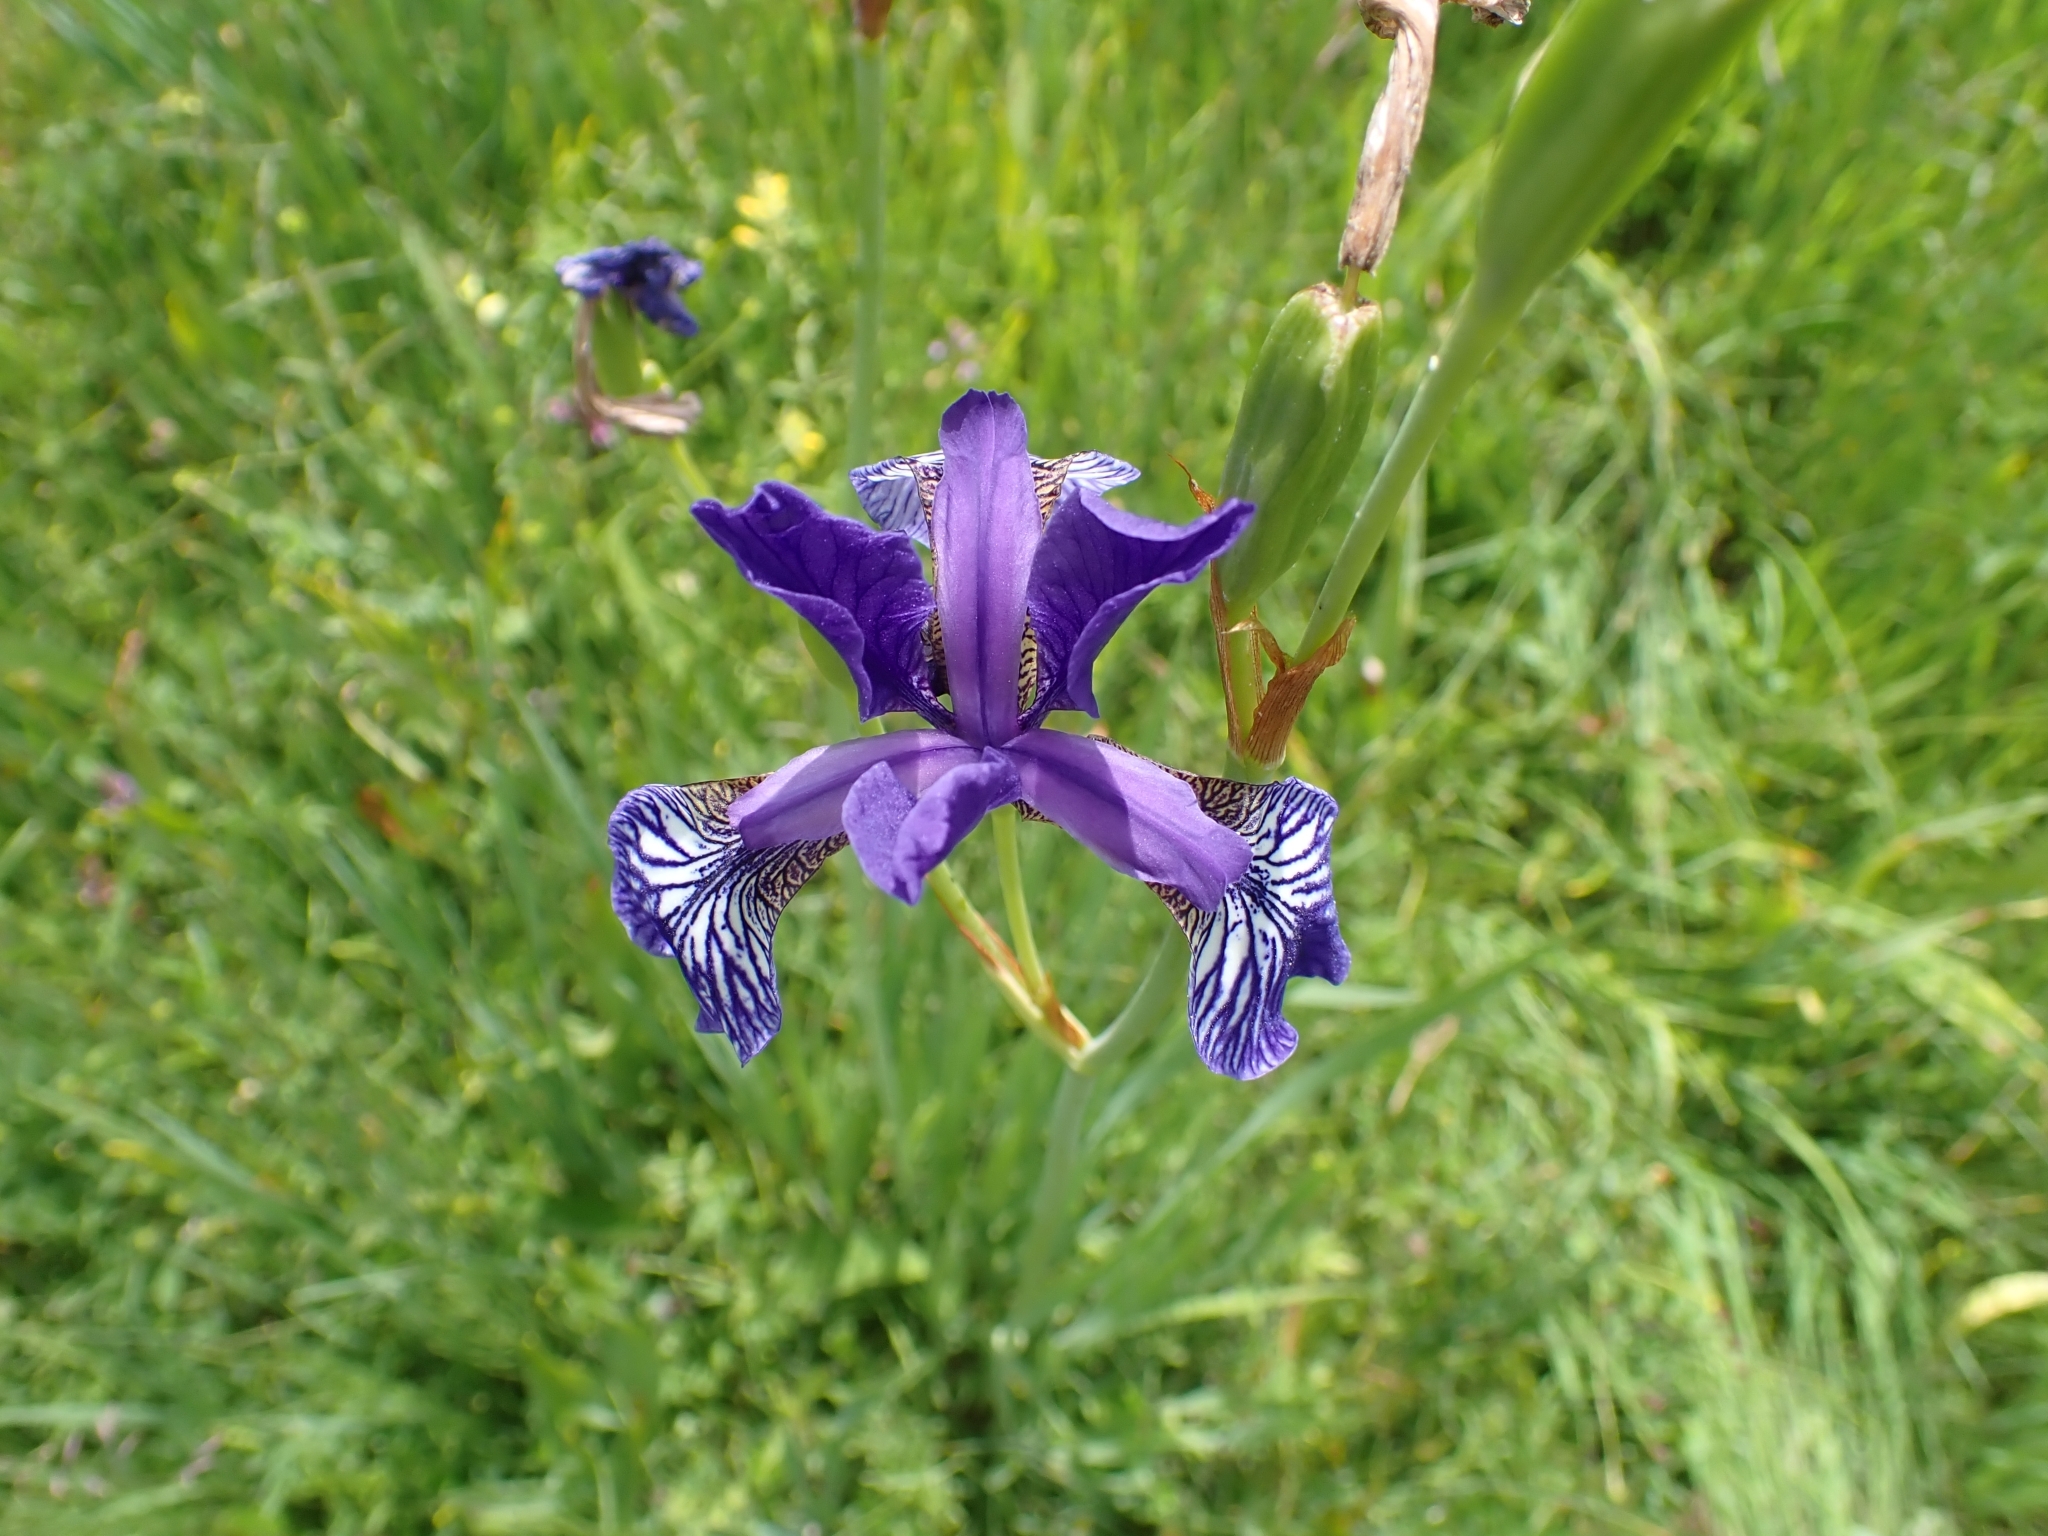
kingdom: Plantae
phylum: Tracheophyta
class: Liliopsida
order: Asparagales
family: Iridaceae
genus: Iris
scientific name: Iris sibirica
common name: Siberian iris
